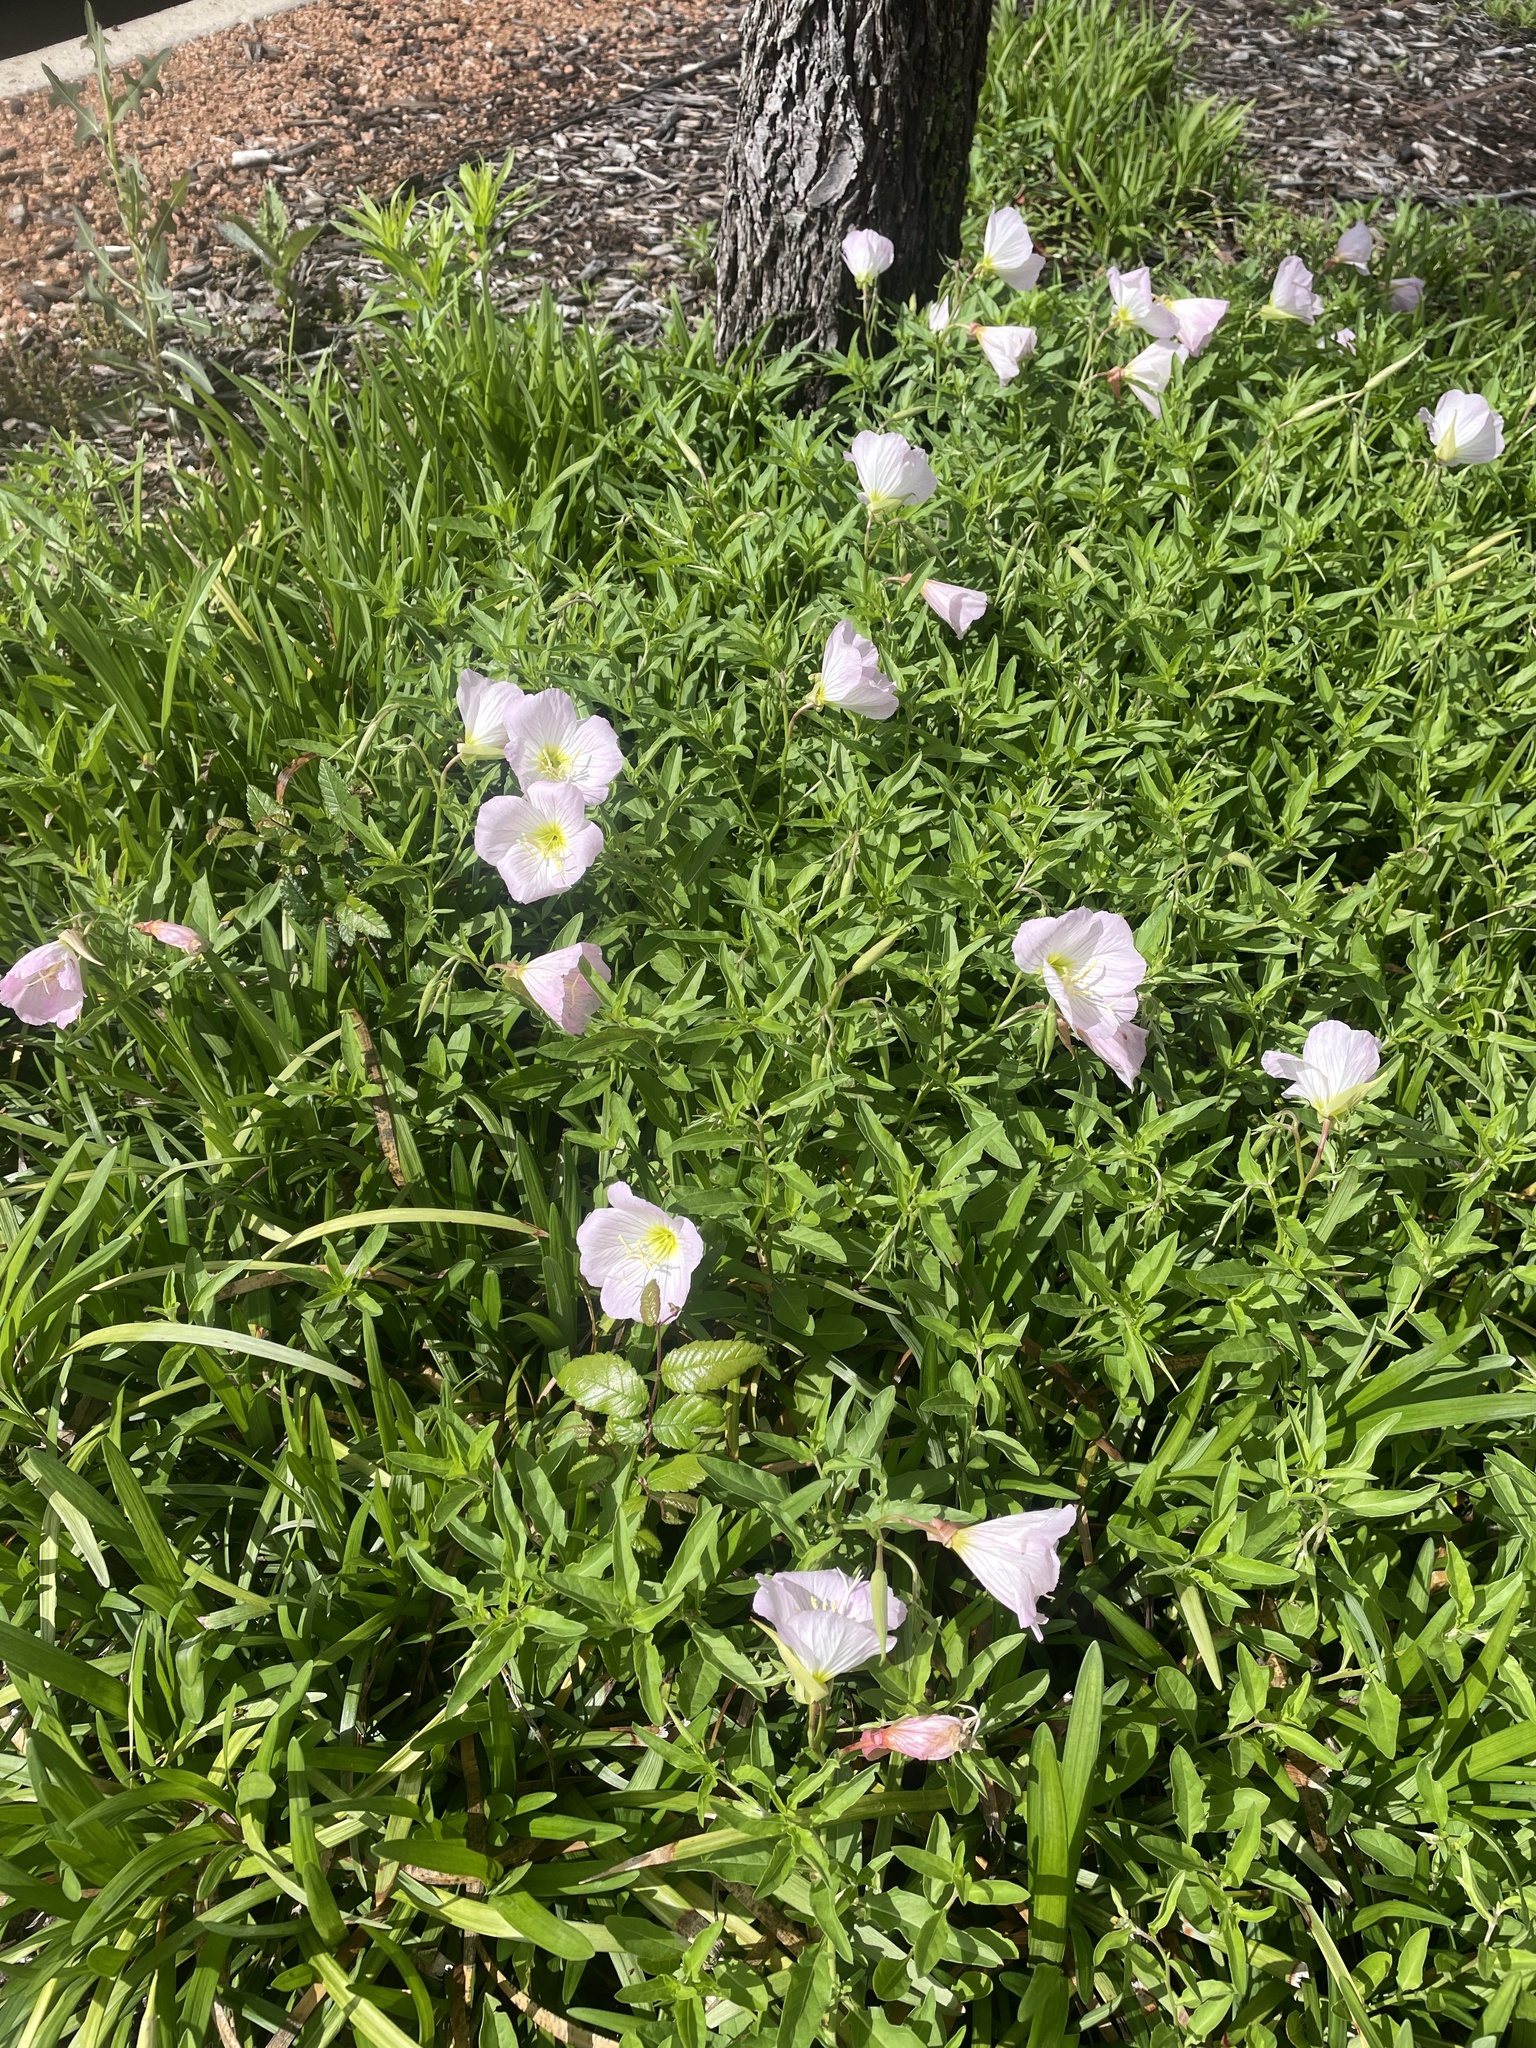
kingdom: Plantae
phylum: Tracheophyta
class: Magnoliopsida
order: Myrtales
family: Onagraceae
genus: Oenothera
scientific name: Oenothera speciosa
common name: White evening-primrose
